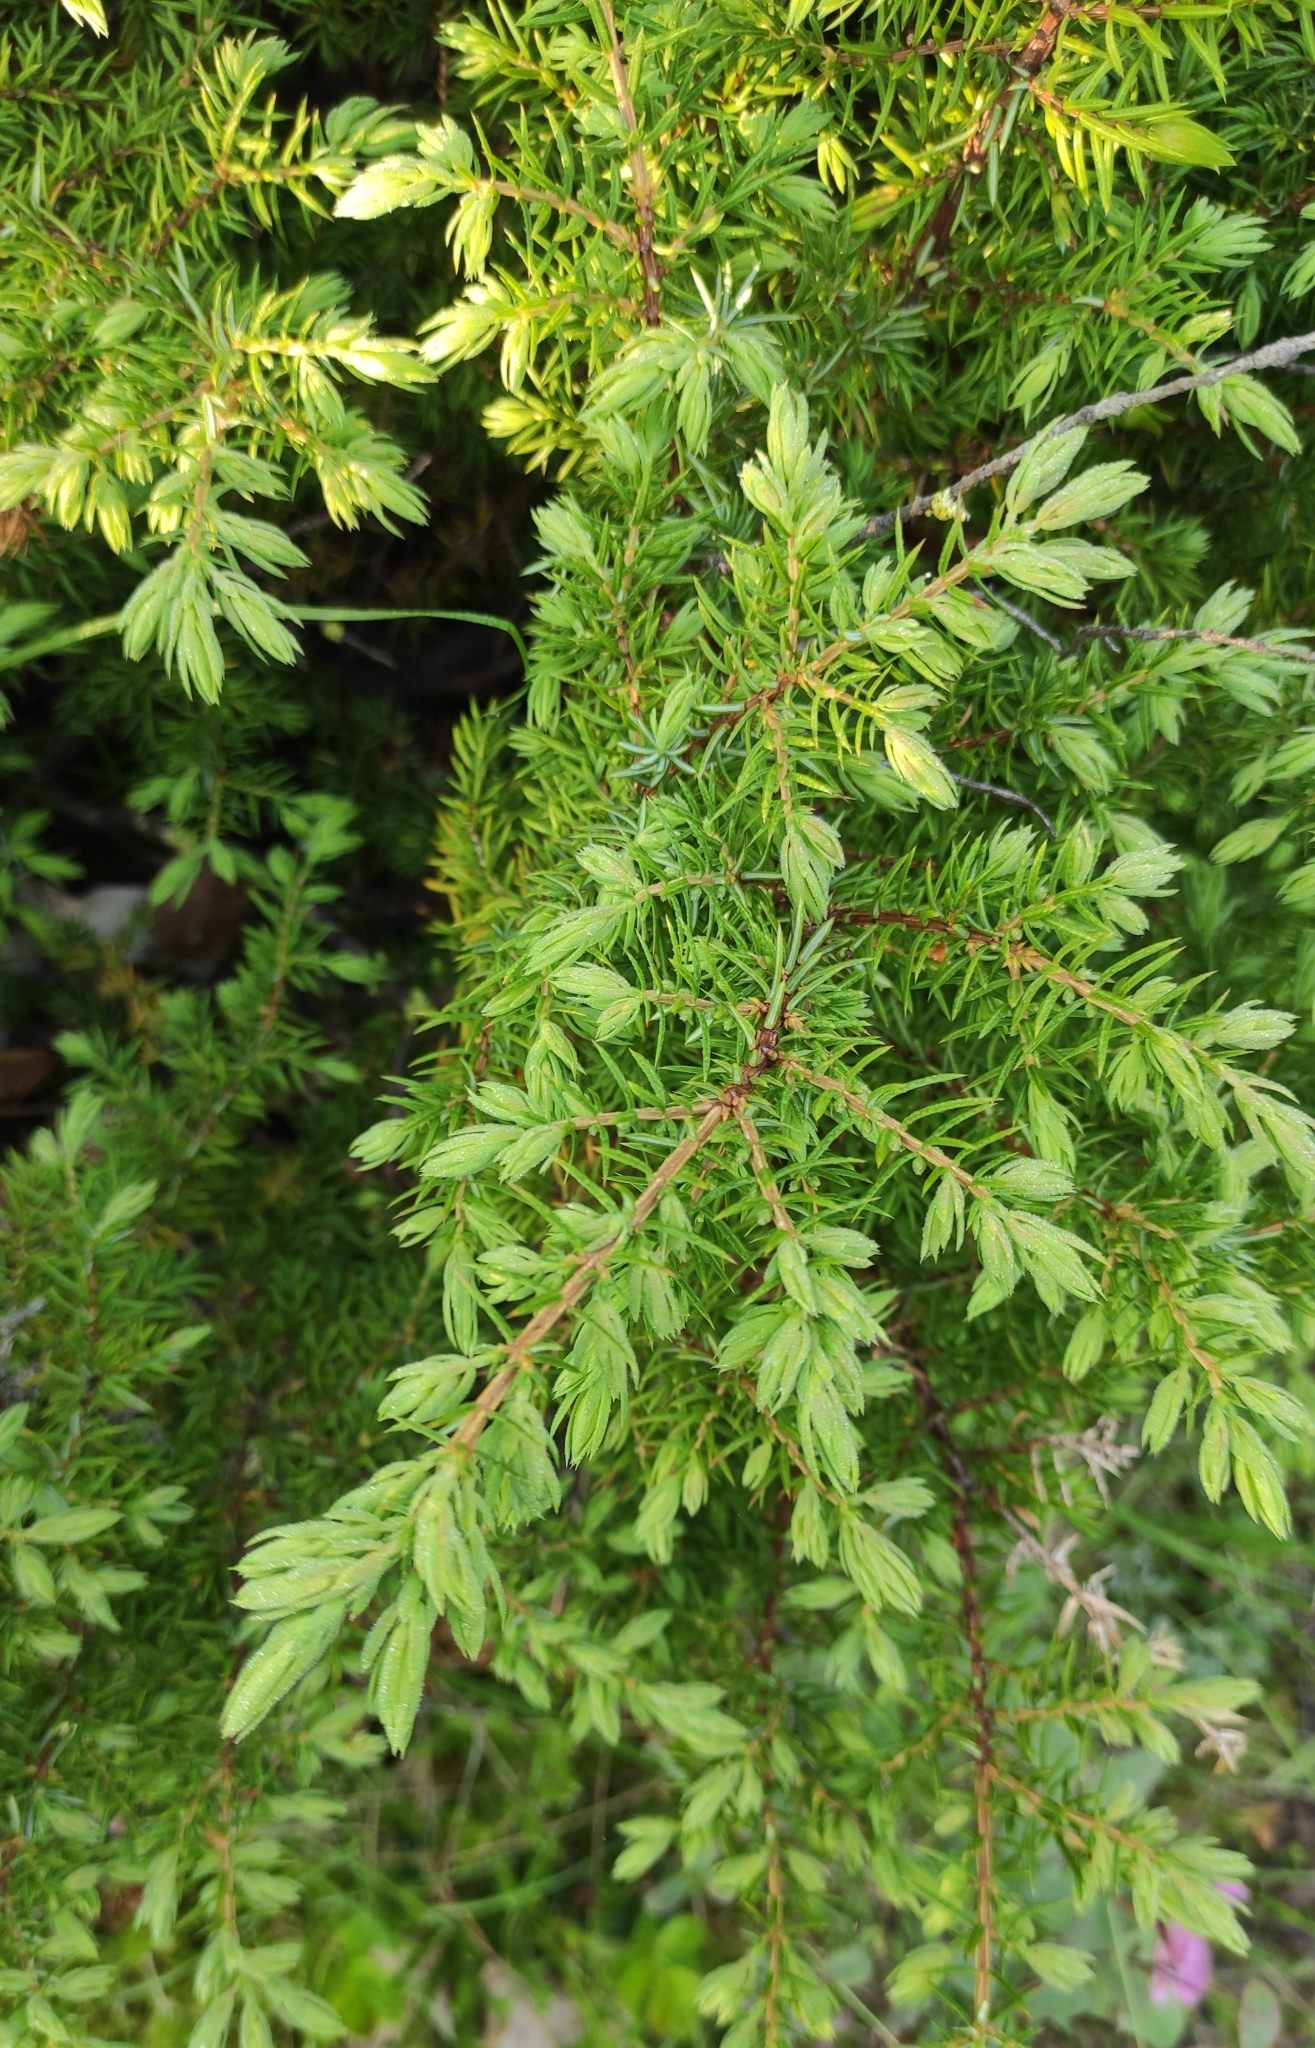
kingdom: Plantae
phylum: Tracheophyta
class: Pinopsida
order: Pinales
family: Cupressaceae
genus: Juniperus
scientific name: Juniperus communis
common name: Common juniper
